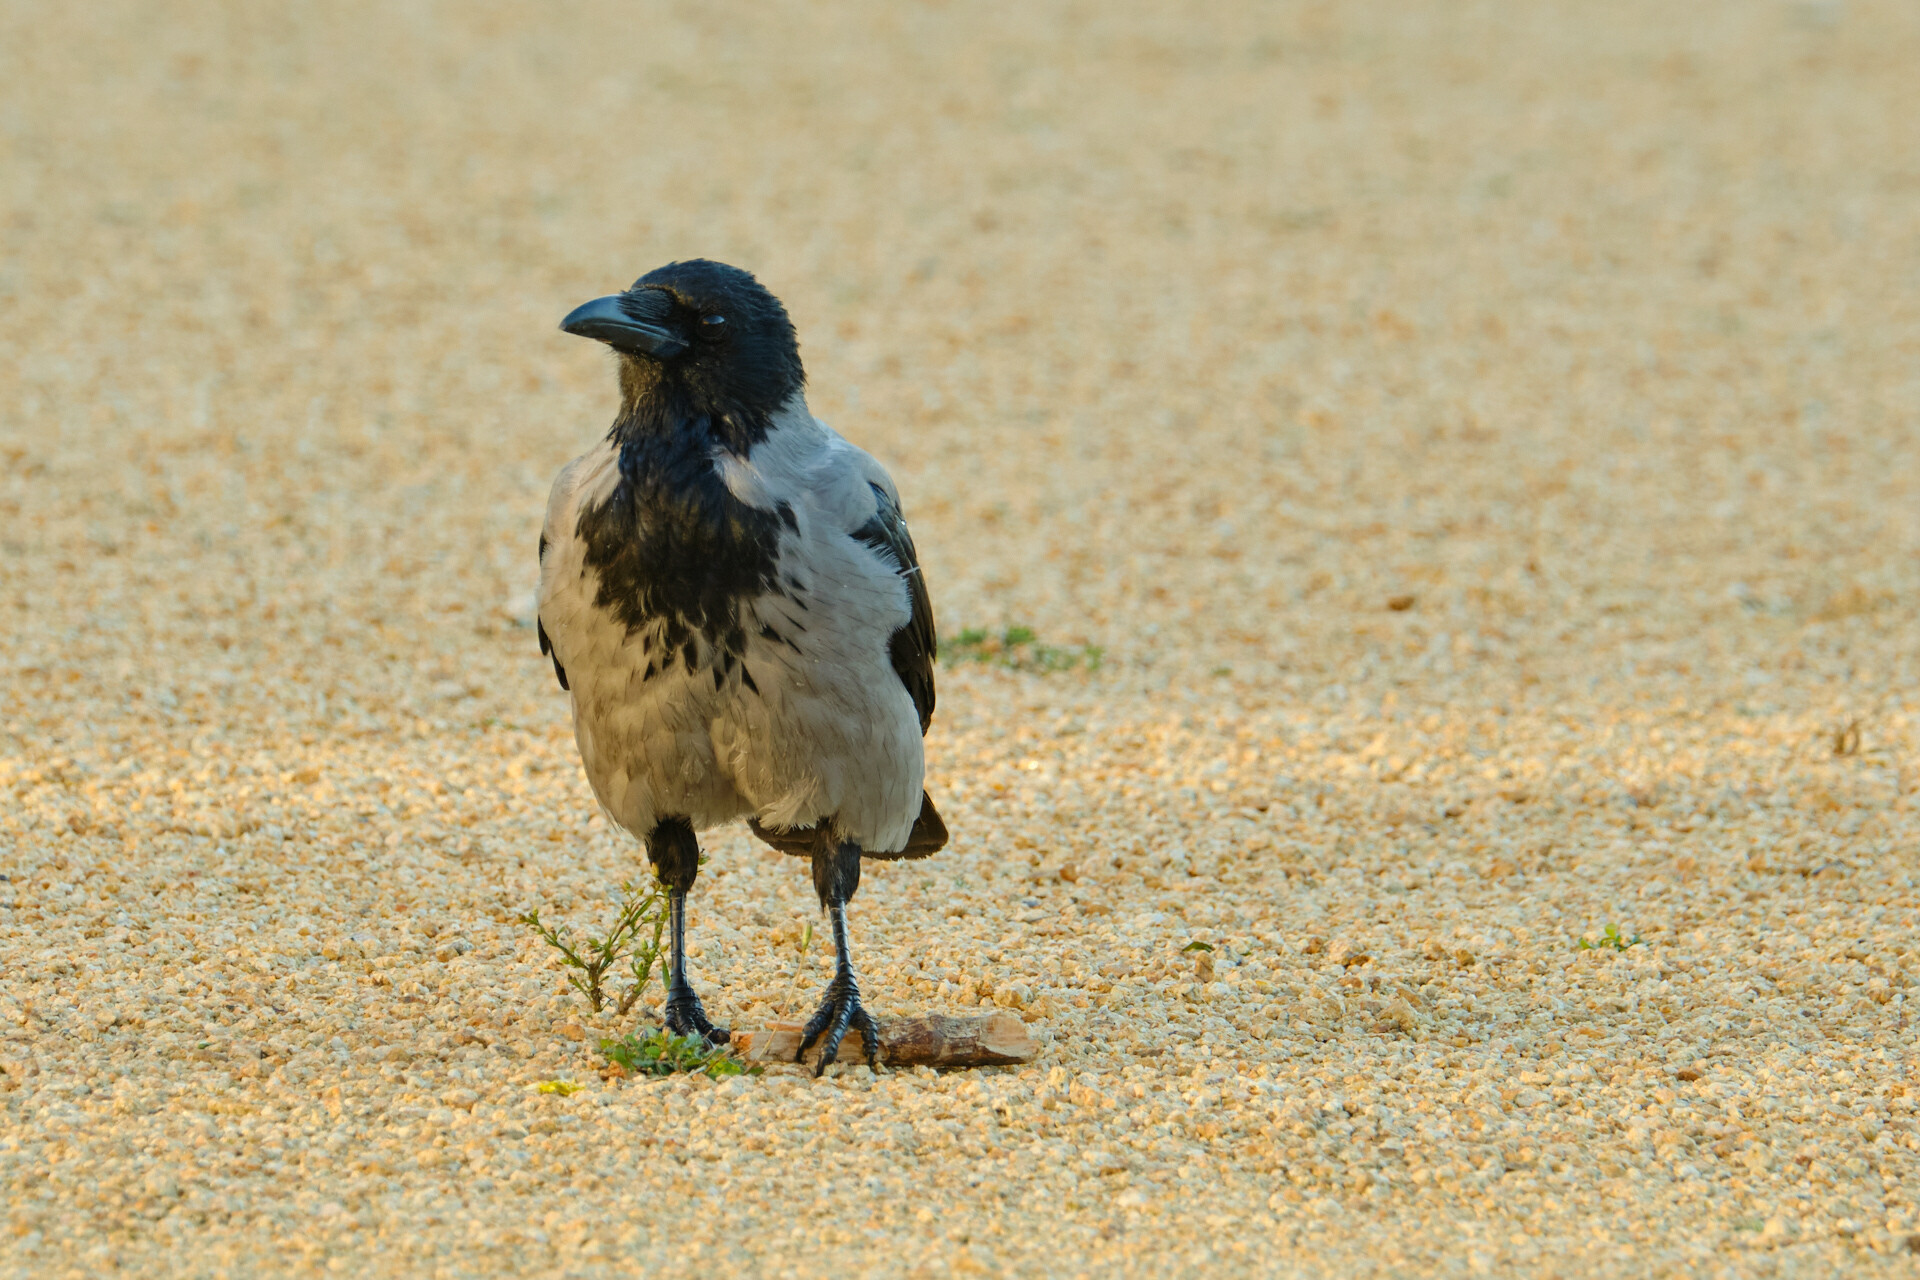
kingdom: Animalia
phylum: Chordata
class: Aves
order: Passeriformes
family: Corvidae
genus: Corvus
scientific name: Corvus cornix
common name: Hooded crow
